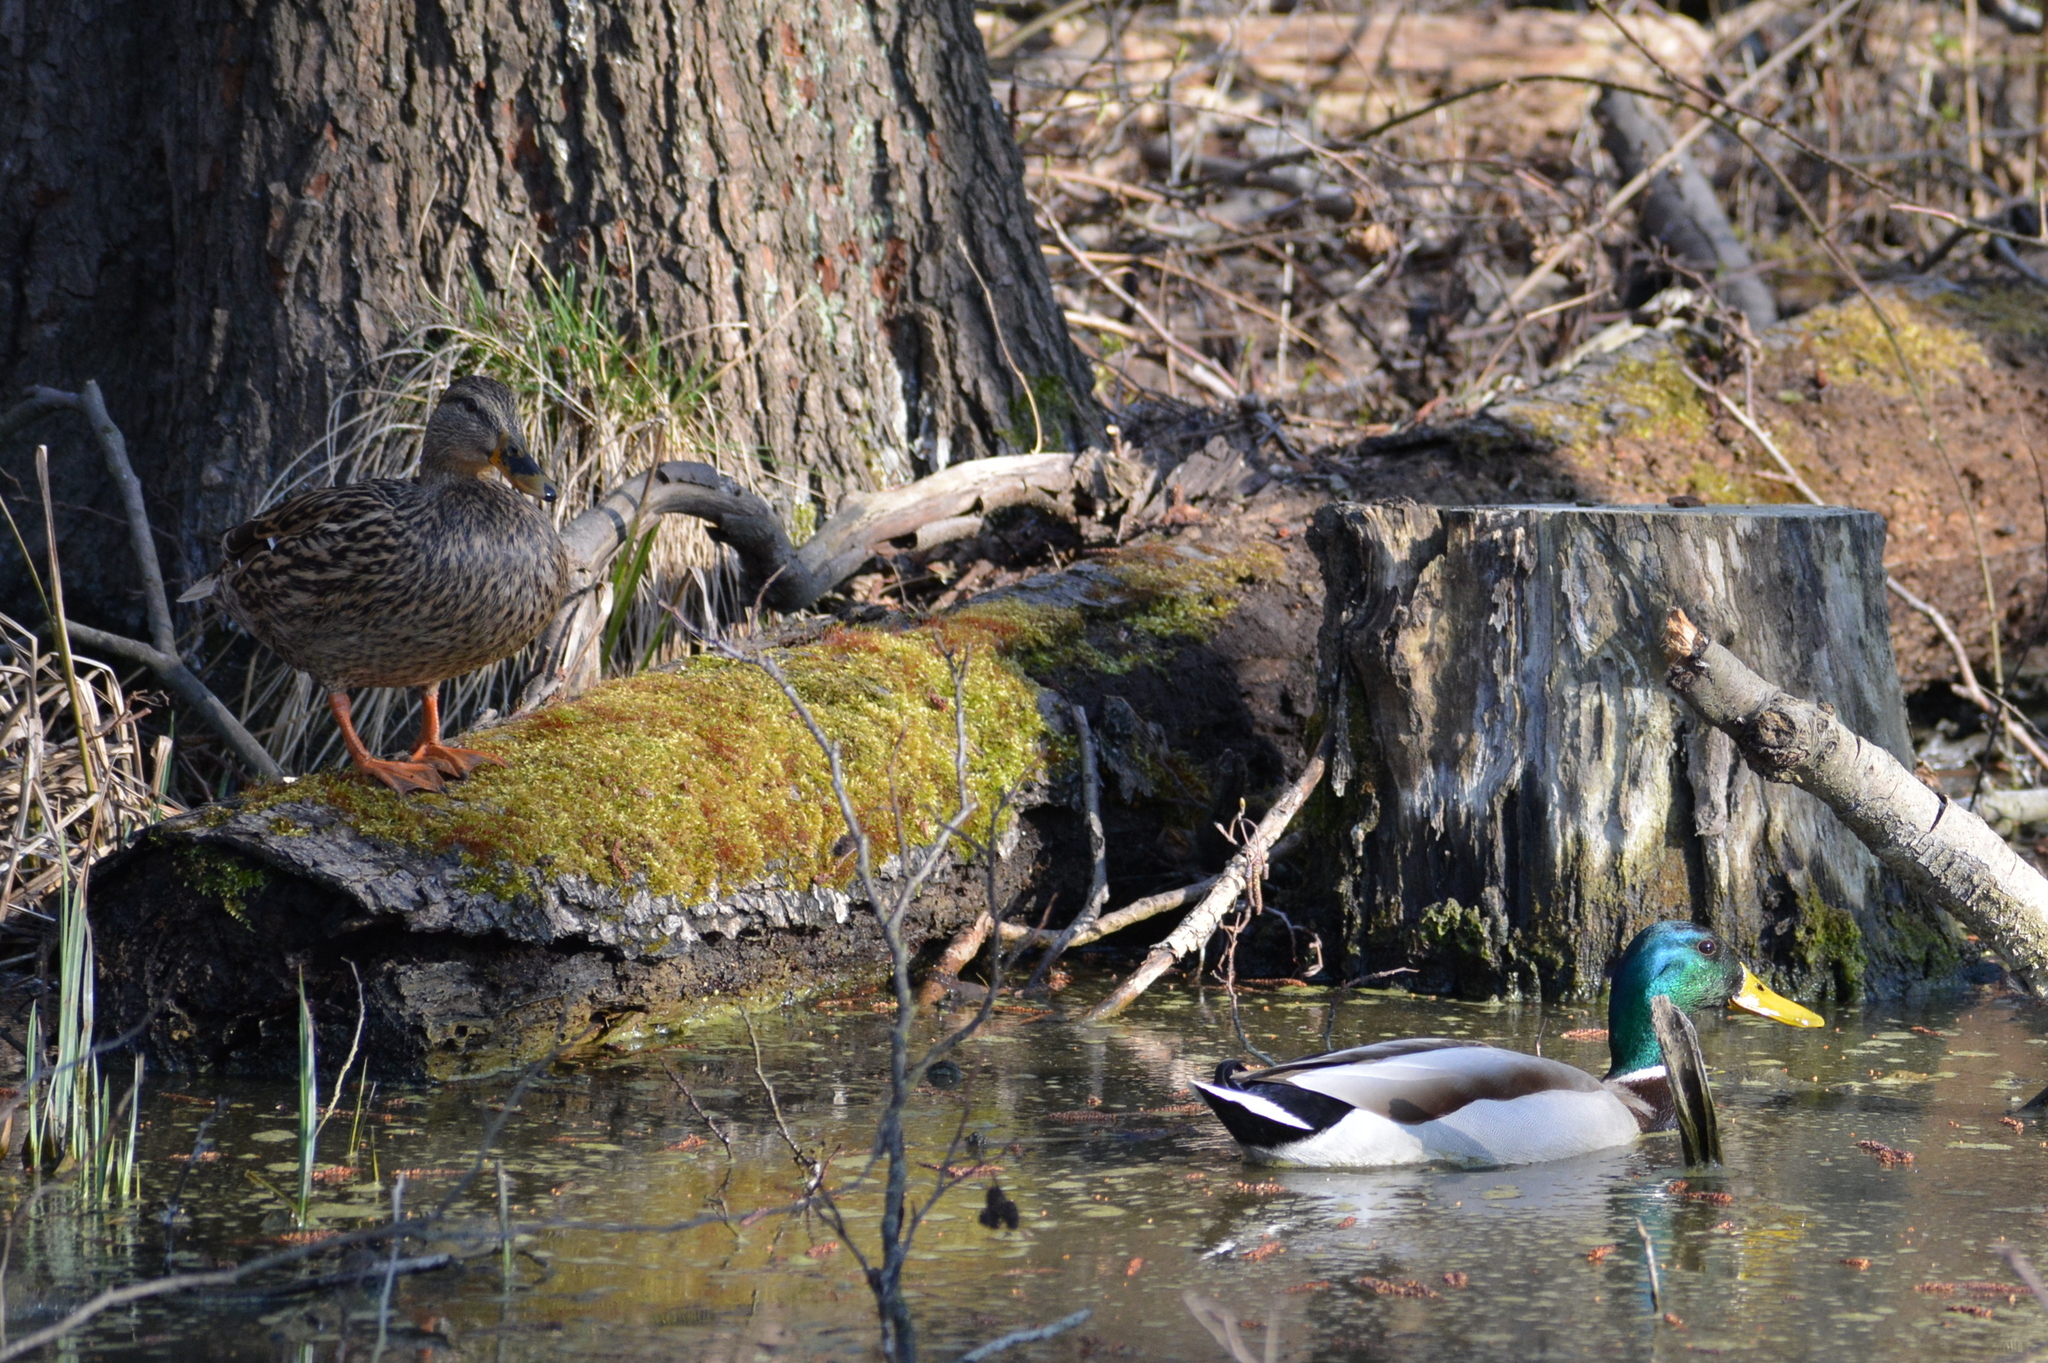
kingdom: Animalia
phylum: Chordata
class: Aves
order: Anseriformes
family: Anatidae
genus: Anas
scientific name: Anas platyrhynchos
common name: Mallard
